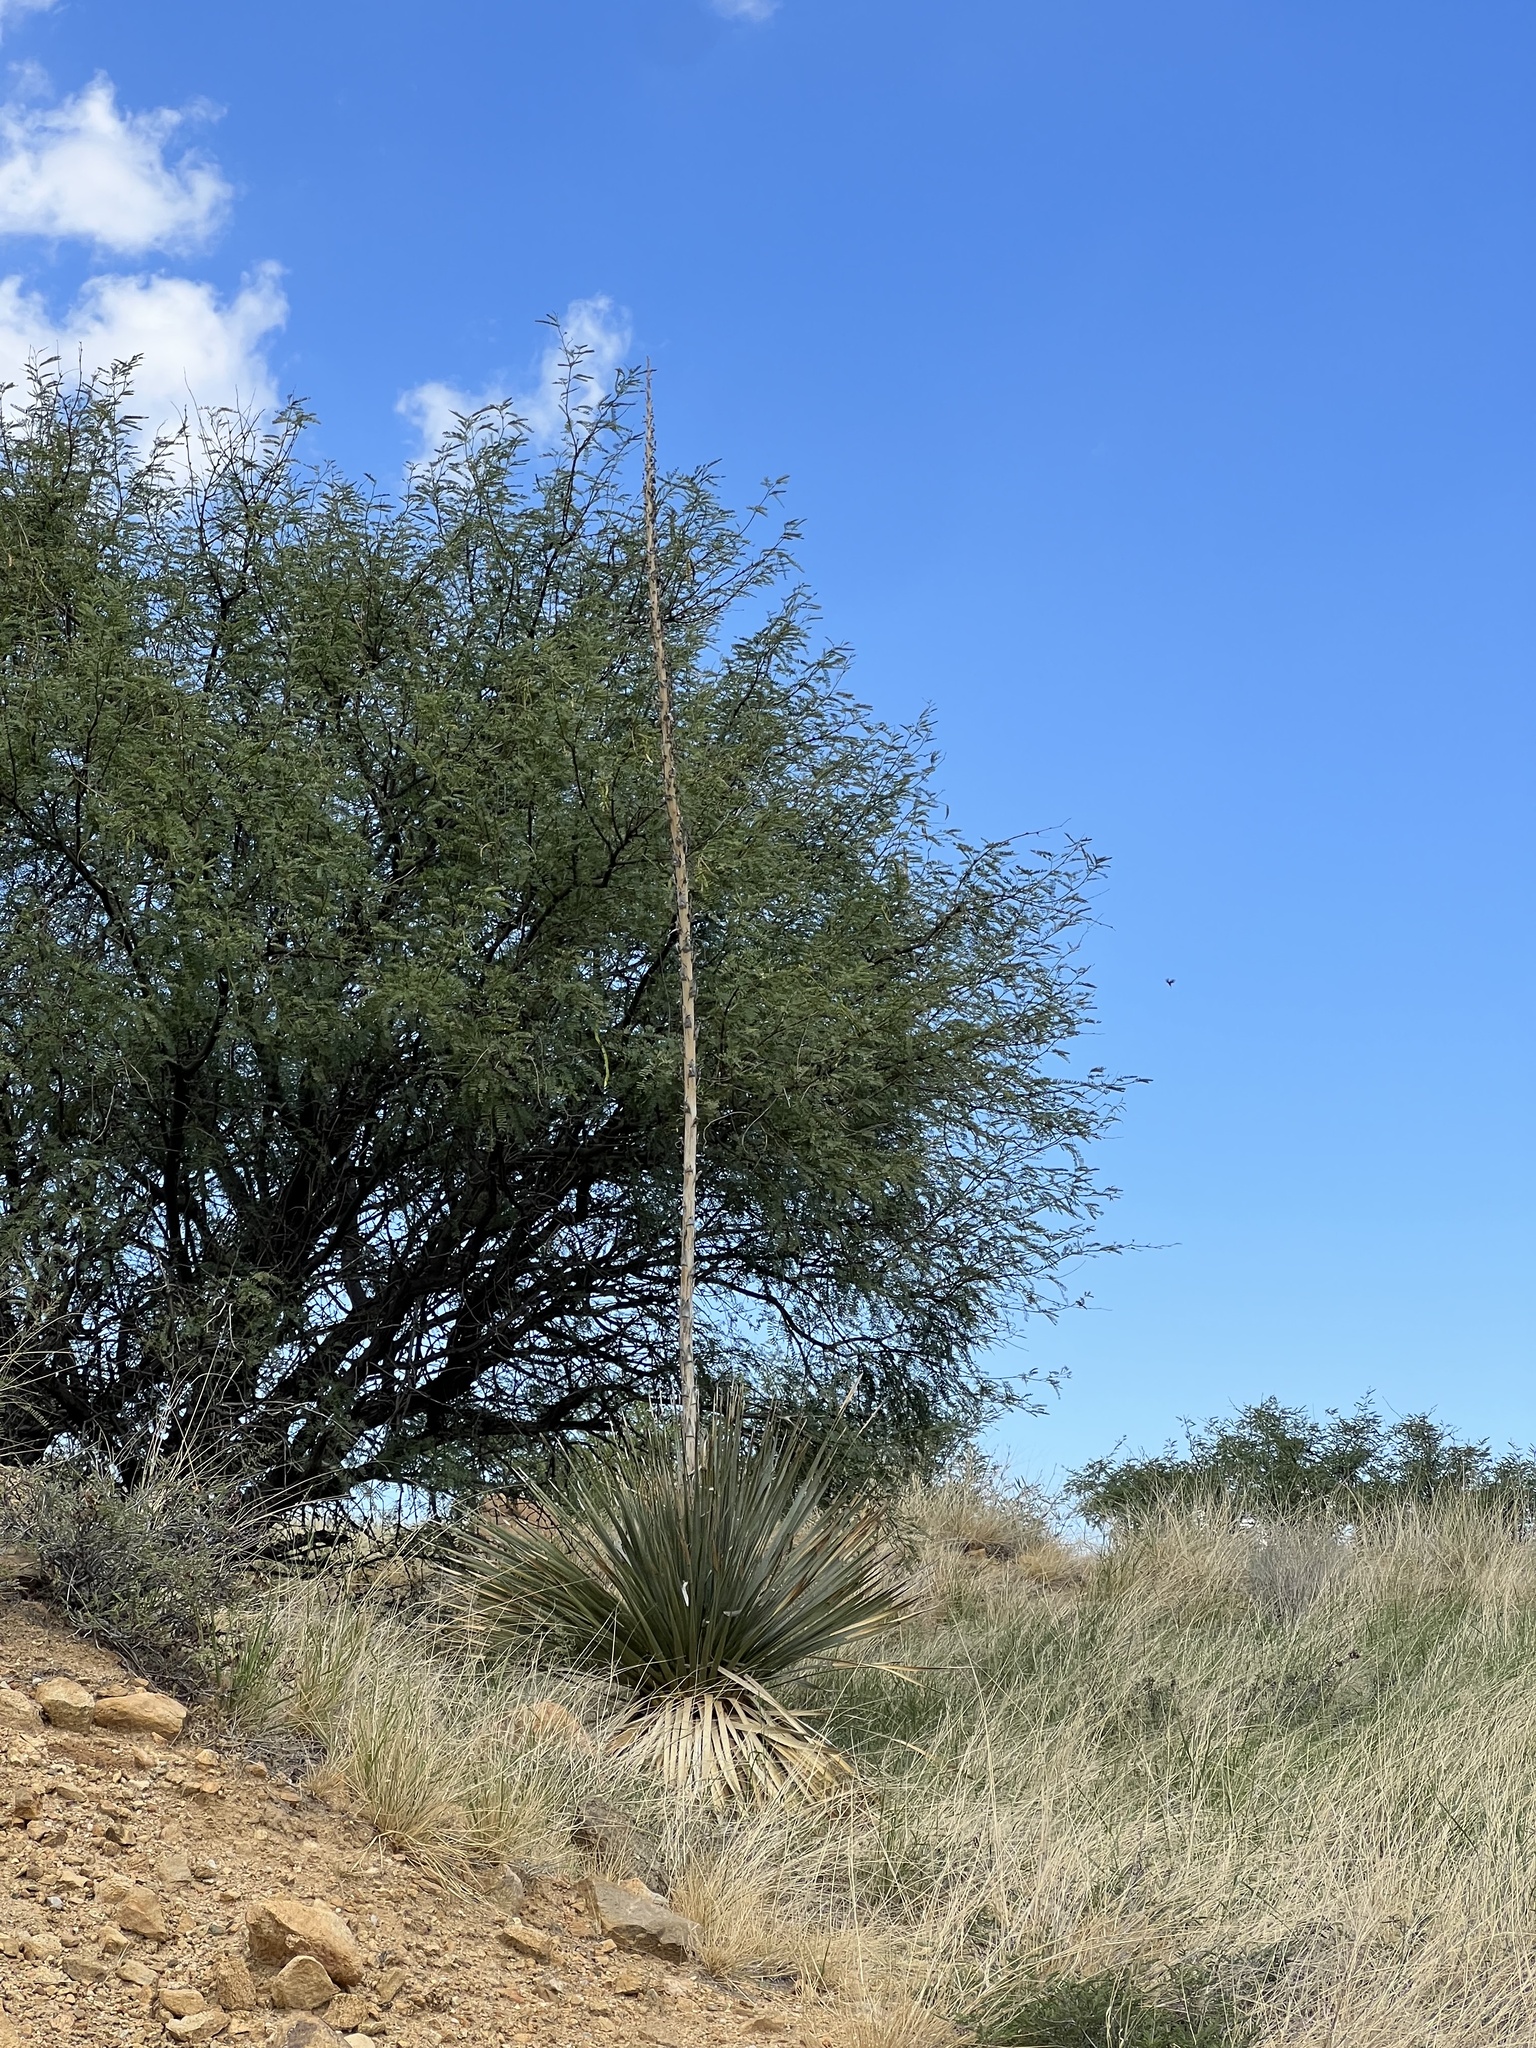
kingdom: Plantae
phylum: Tracheophyta
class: Liliopsida
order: Asparagales
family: Asparagaceae
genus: Dasylirion
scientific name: Dasylirion wheeleri
